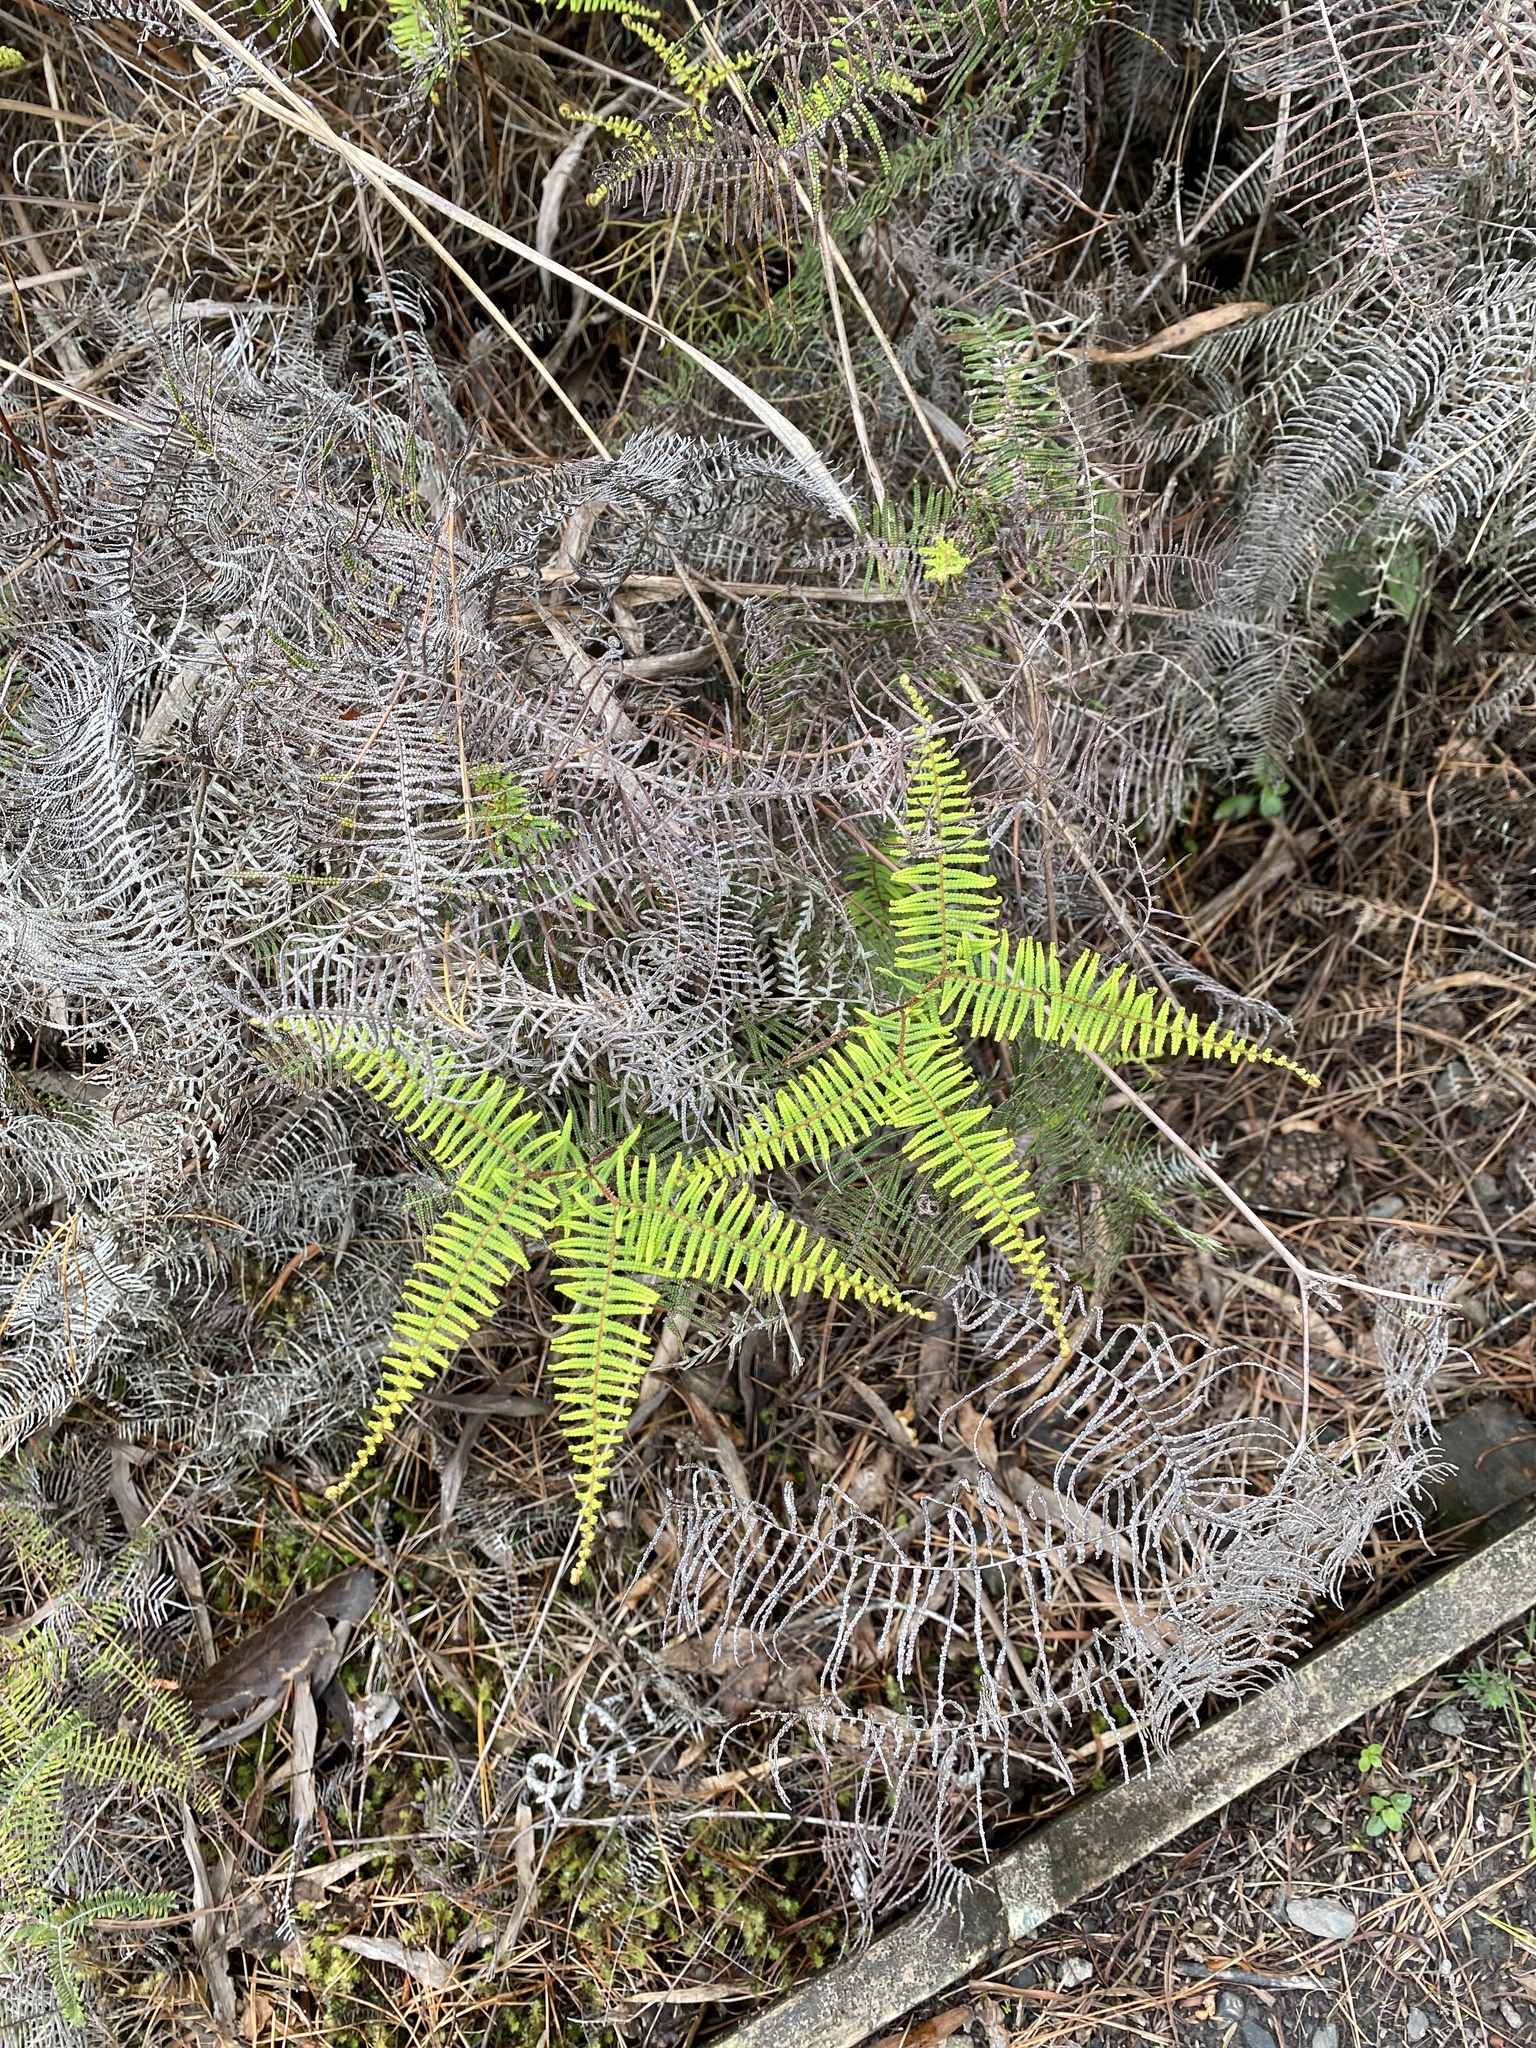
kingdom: Plantae
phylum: Tracheophyta
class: Polypodiopsida
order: Gleicheniales
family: Gleicheniaceae
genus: Gleichenia
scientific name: Gleichenia dicarpa
